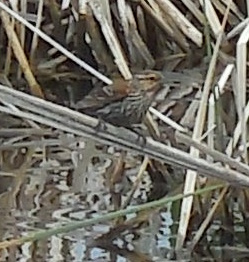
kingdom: Animalia
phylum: Chordata
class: Aves
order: Passeriformes
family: Icteridae
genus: Agelaius
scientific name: Agelaius phoeniceus
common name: Red-winged blackbird
